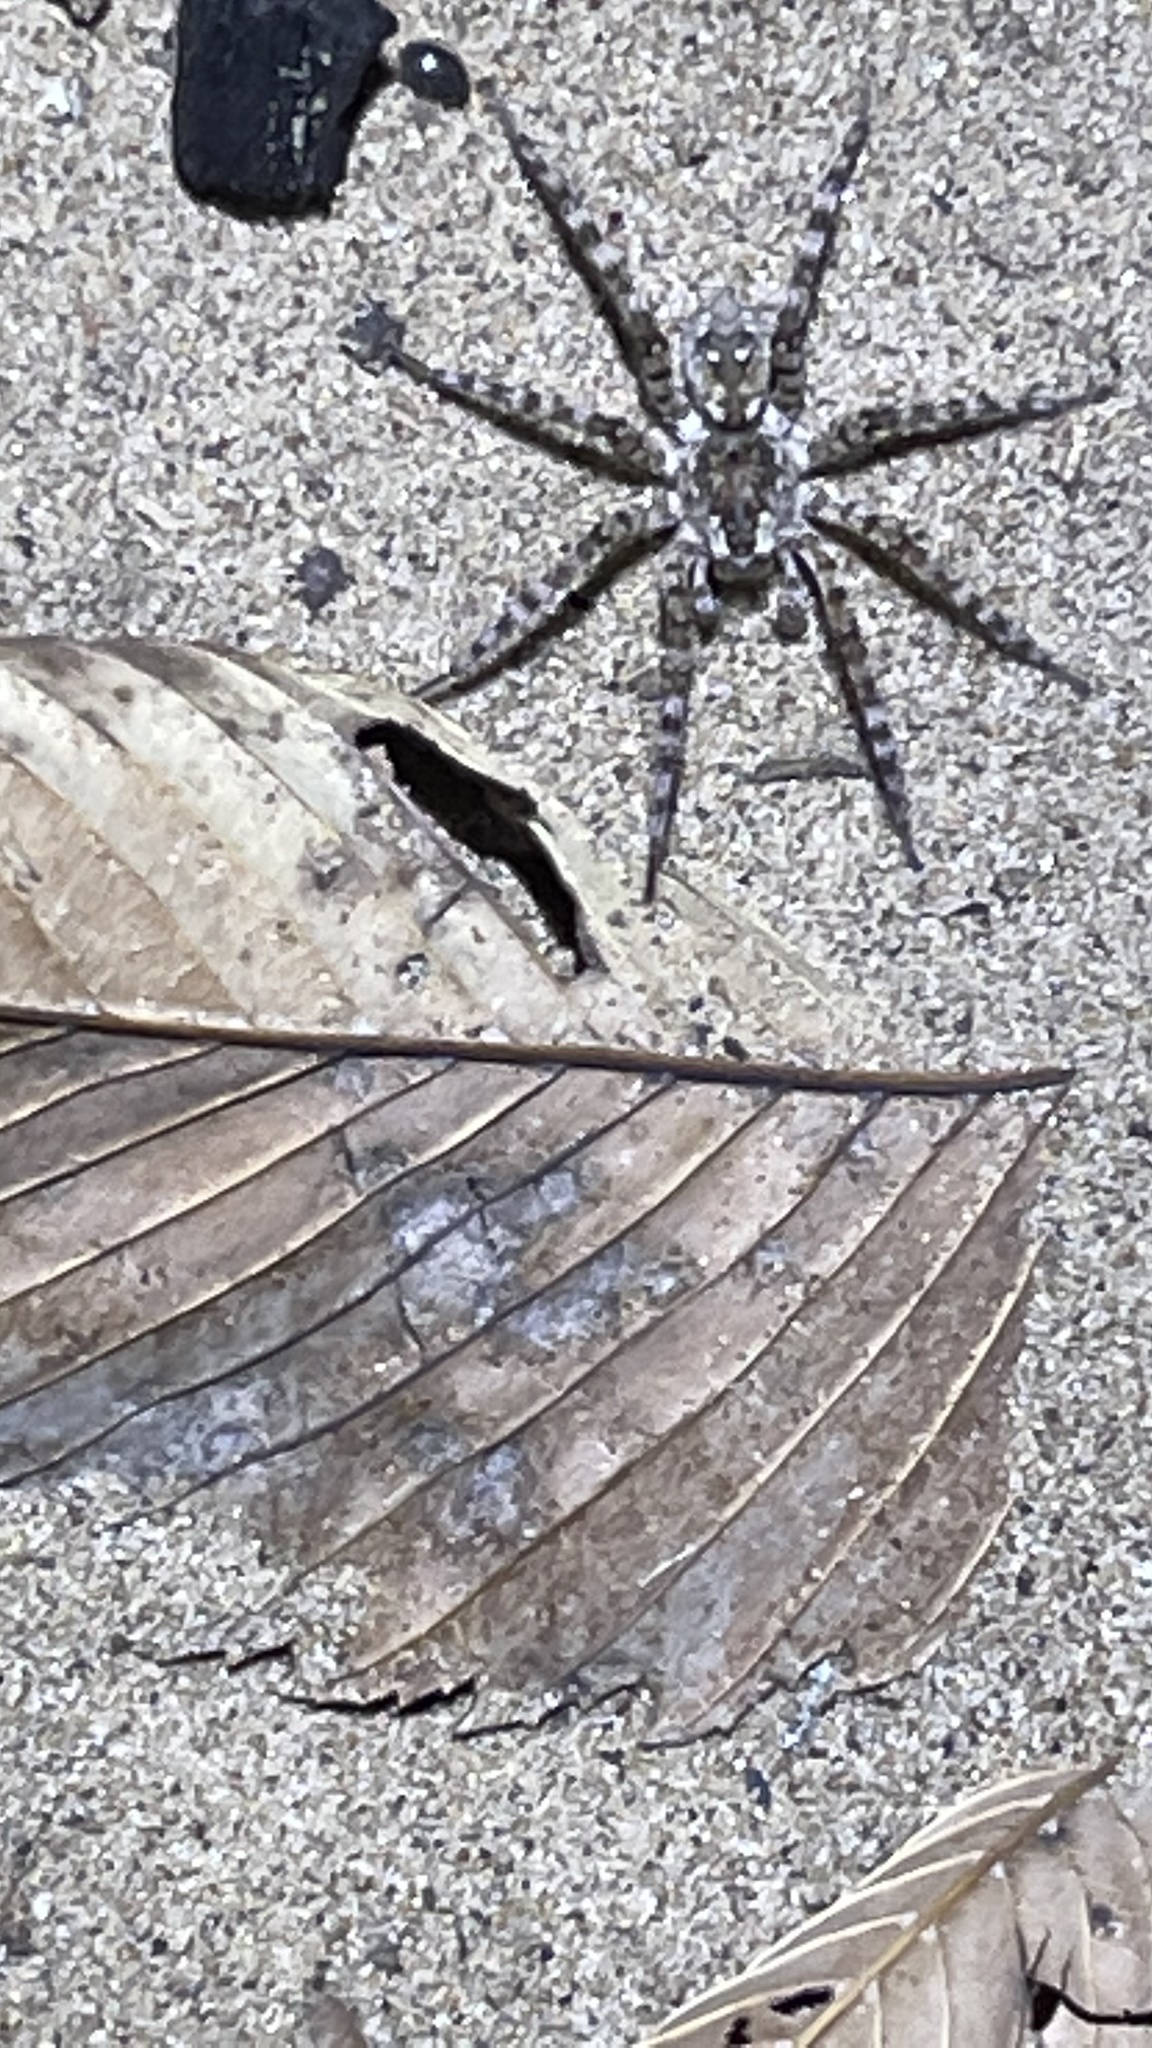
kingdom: Animalia
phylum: Arthropoda
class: Arachnida
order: Araneae
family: Lycosidae
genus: Arctosa
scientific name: Arctosa littoralis
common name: Wolf spiders
